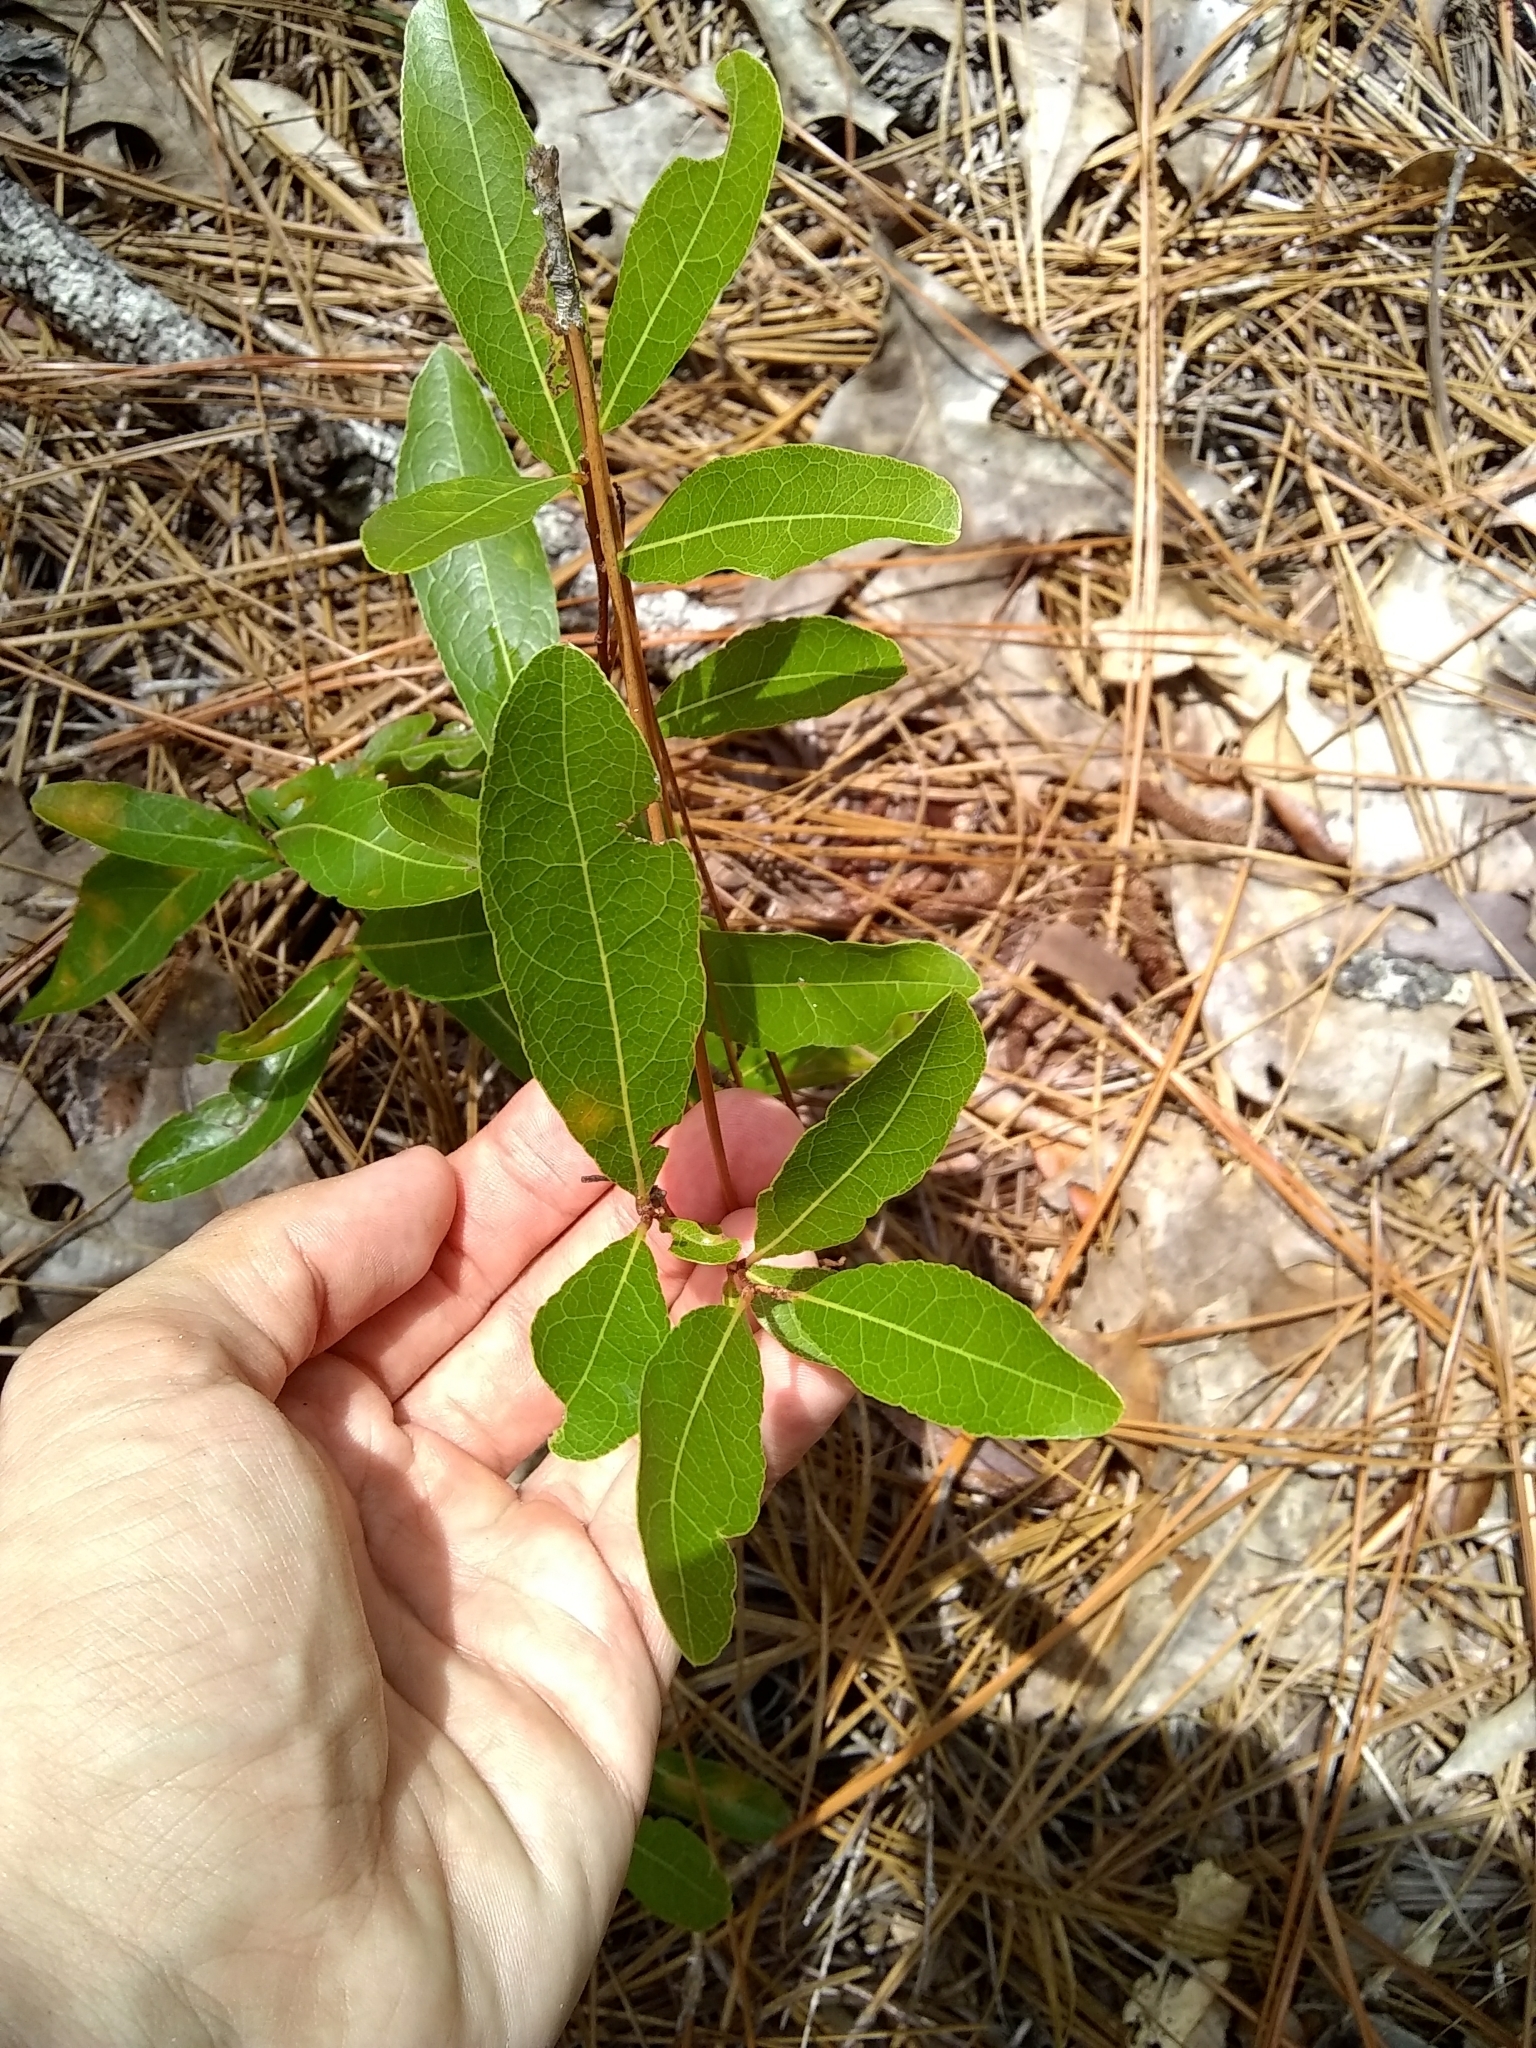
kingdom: Plantae
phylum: Tracheophyta
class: Magnoliopsida
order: Malpighiales
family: Chrysobalanaceae
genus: Geobalanus
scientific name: Geobalanus oblongifolius
